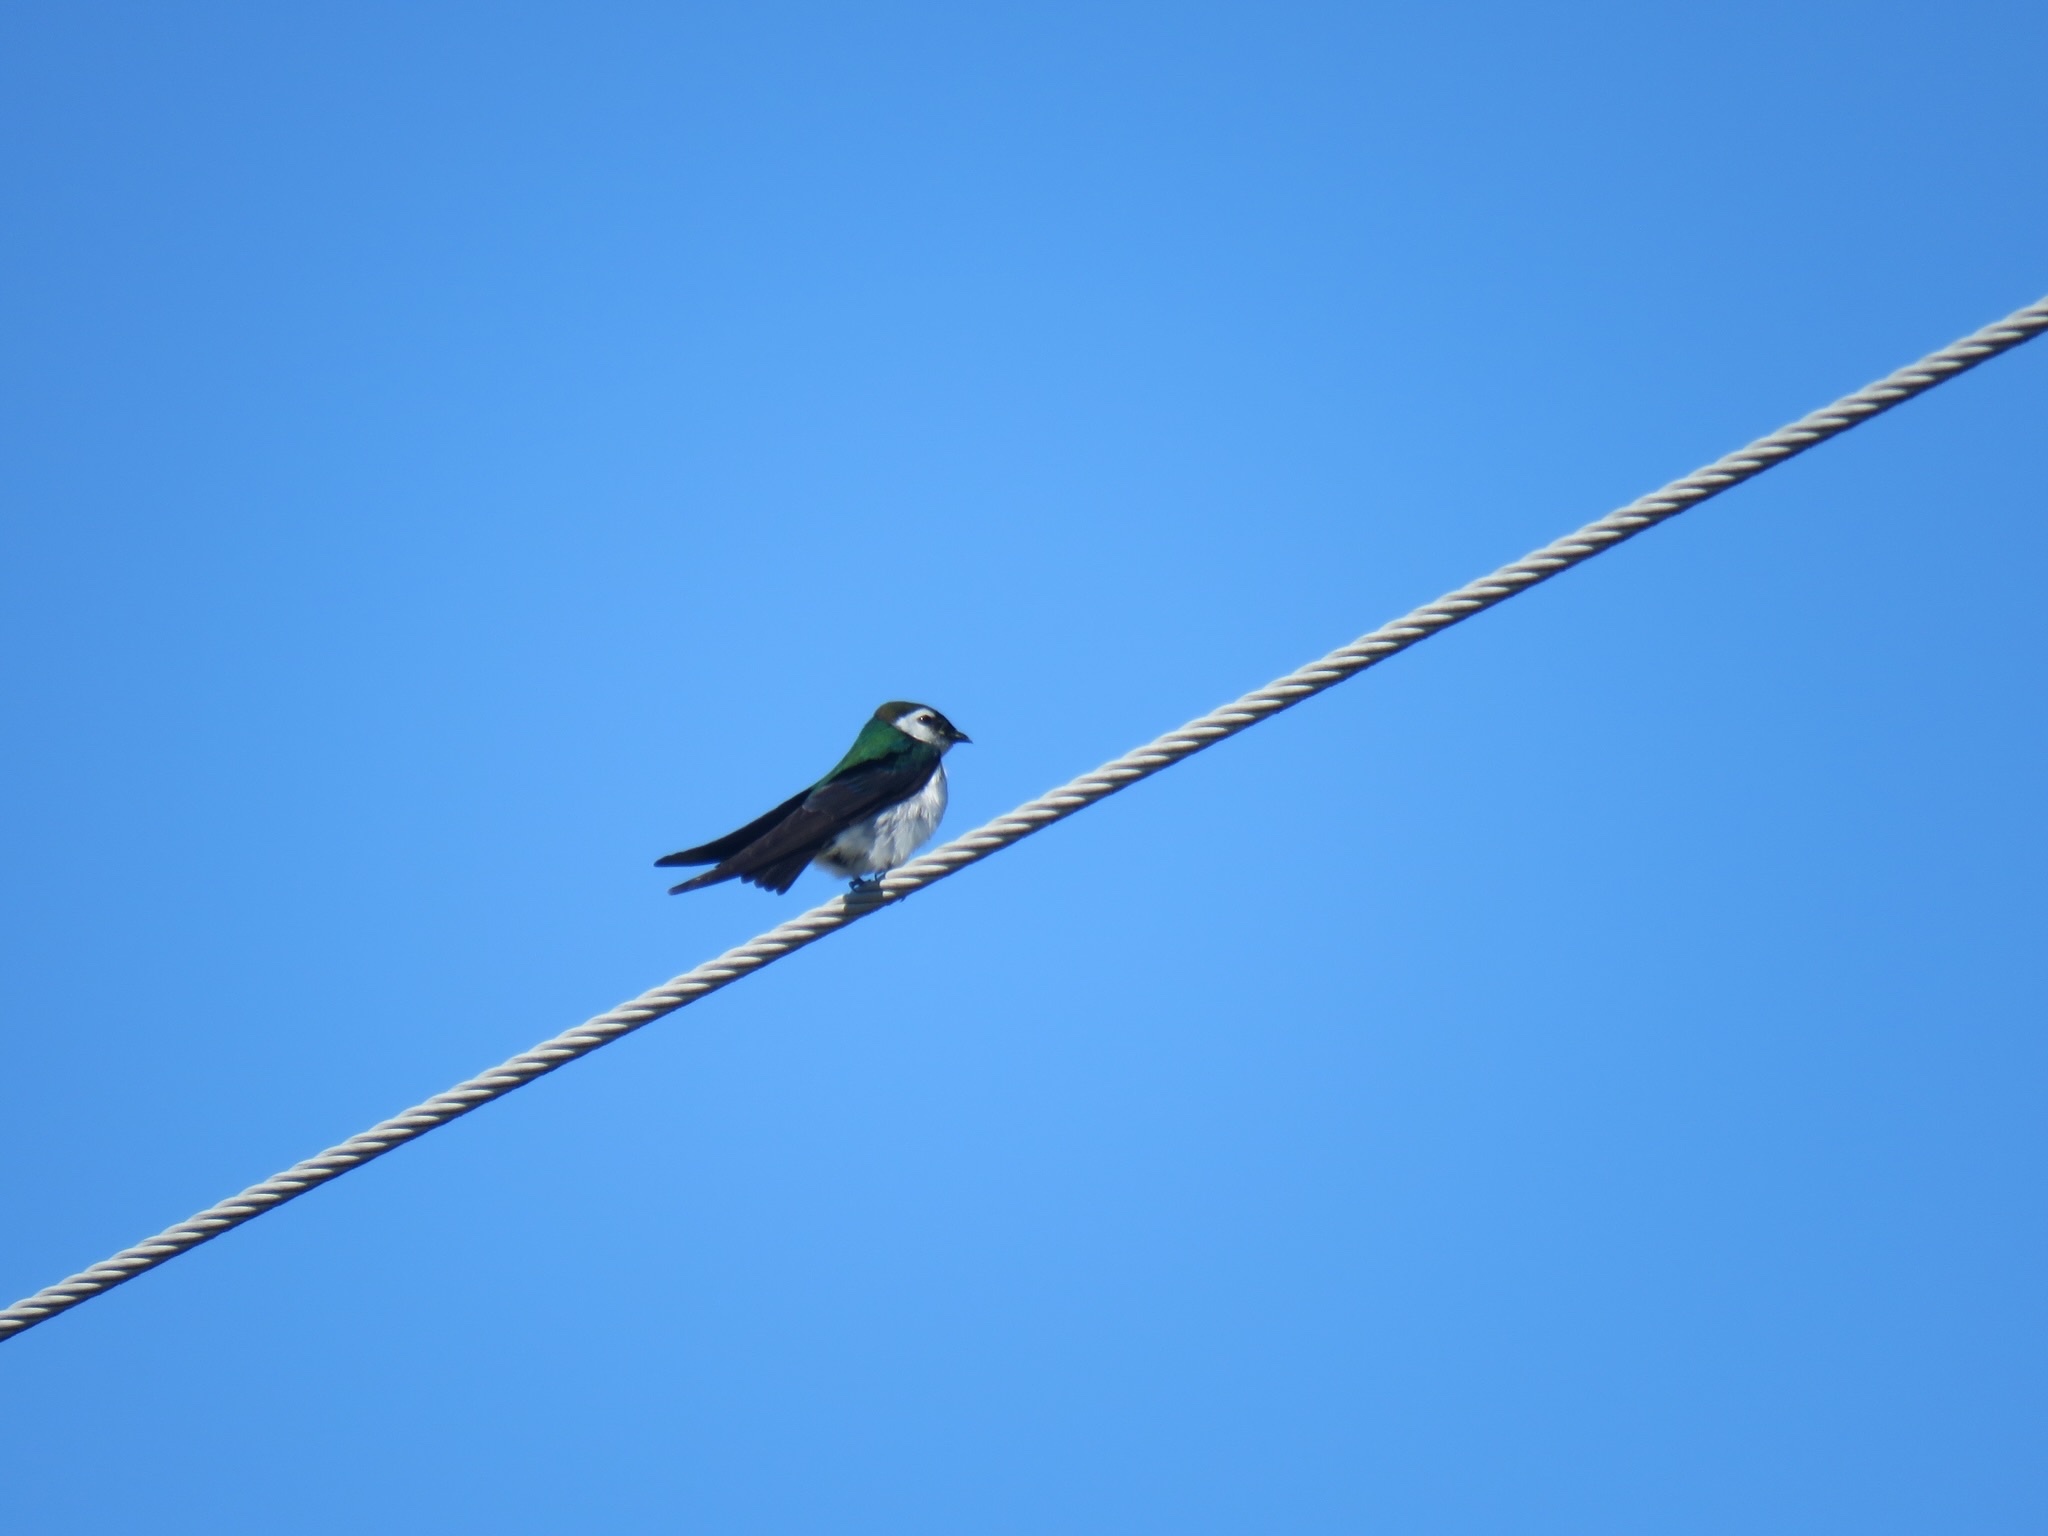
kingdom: Animalia
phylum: Chordata
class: Aves
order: Passeriformes
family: Hirundinidae
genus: Tachycineta
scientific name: Tachycineta thalassina
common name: Violet-green swallow
